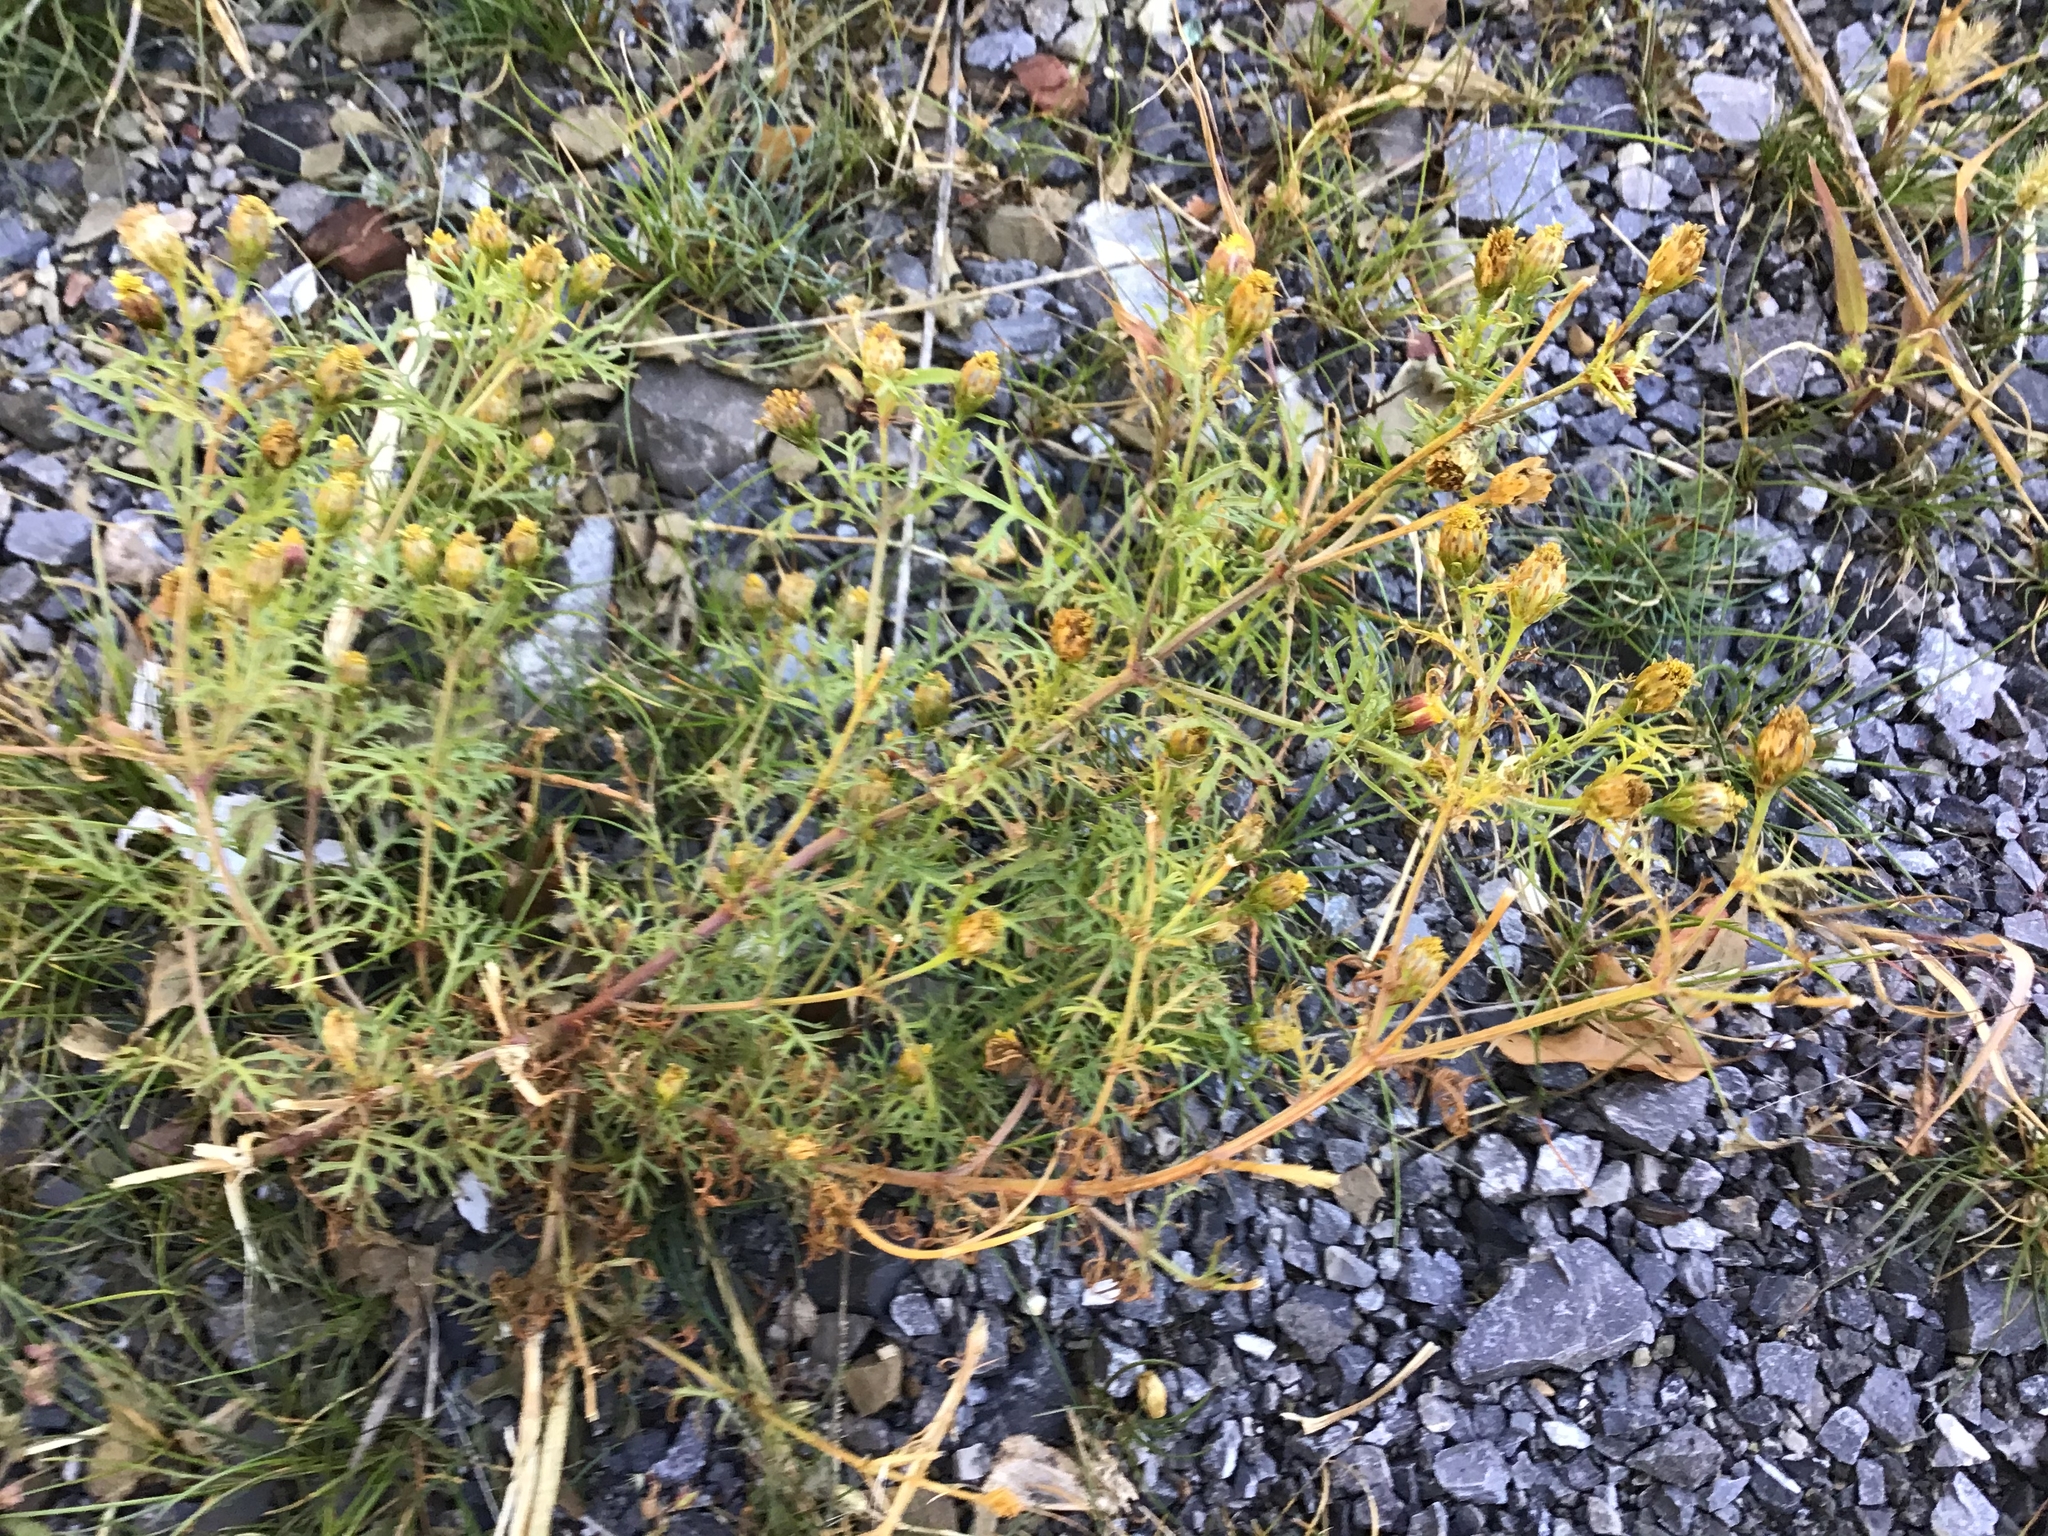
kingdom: Plantae
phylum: Tracheophyta
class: Magnoliopsida
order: Asterales
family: Asteraceae
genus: Dyssodia
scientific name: Dyssodia papposa
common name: Dogweed
